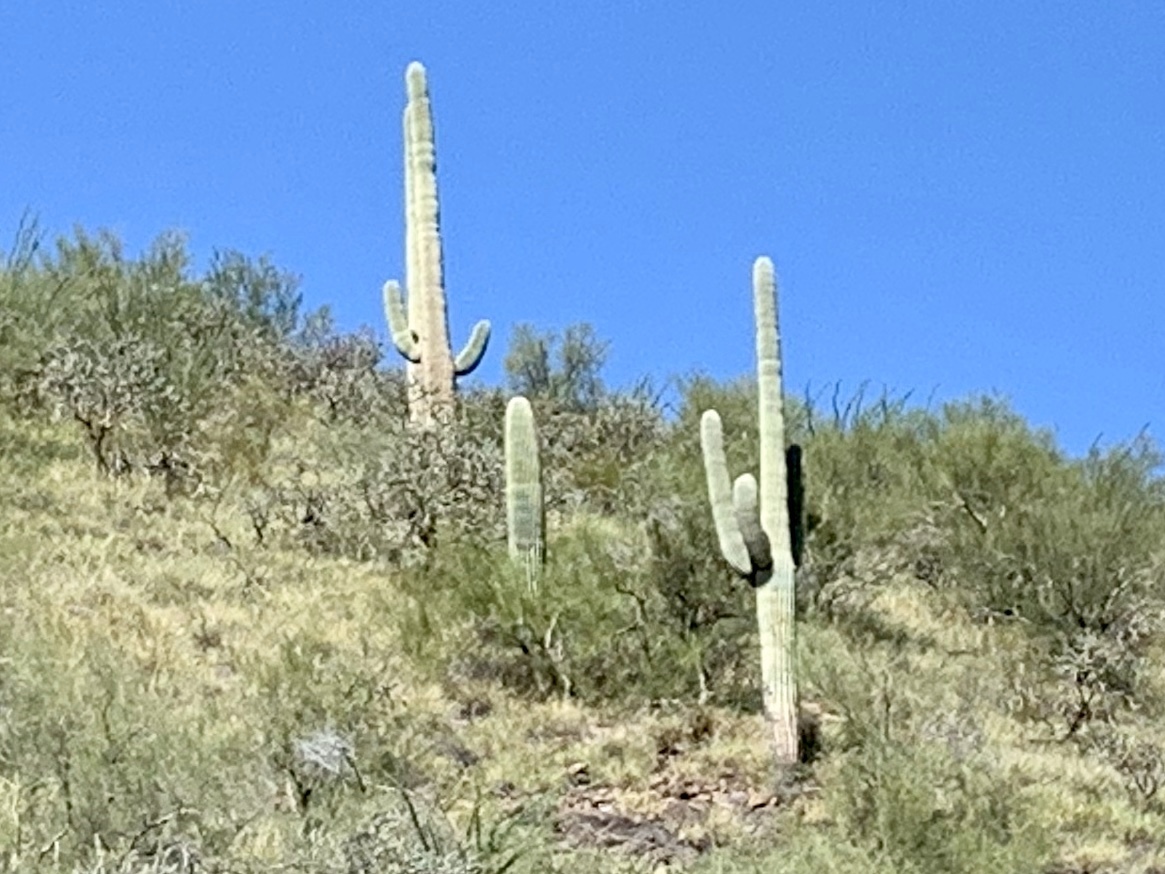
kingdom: Plantae
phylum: Tracheophyta
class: Magnoliopsida
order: Caryophyllales
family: Cactaceae
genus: Carnegiea
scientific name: Carnegiea gigantea
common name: Saguaro
